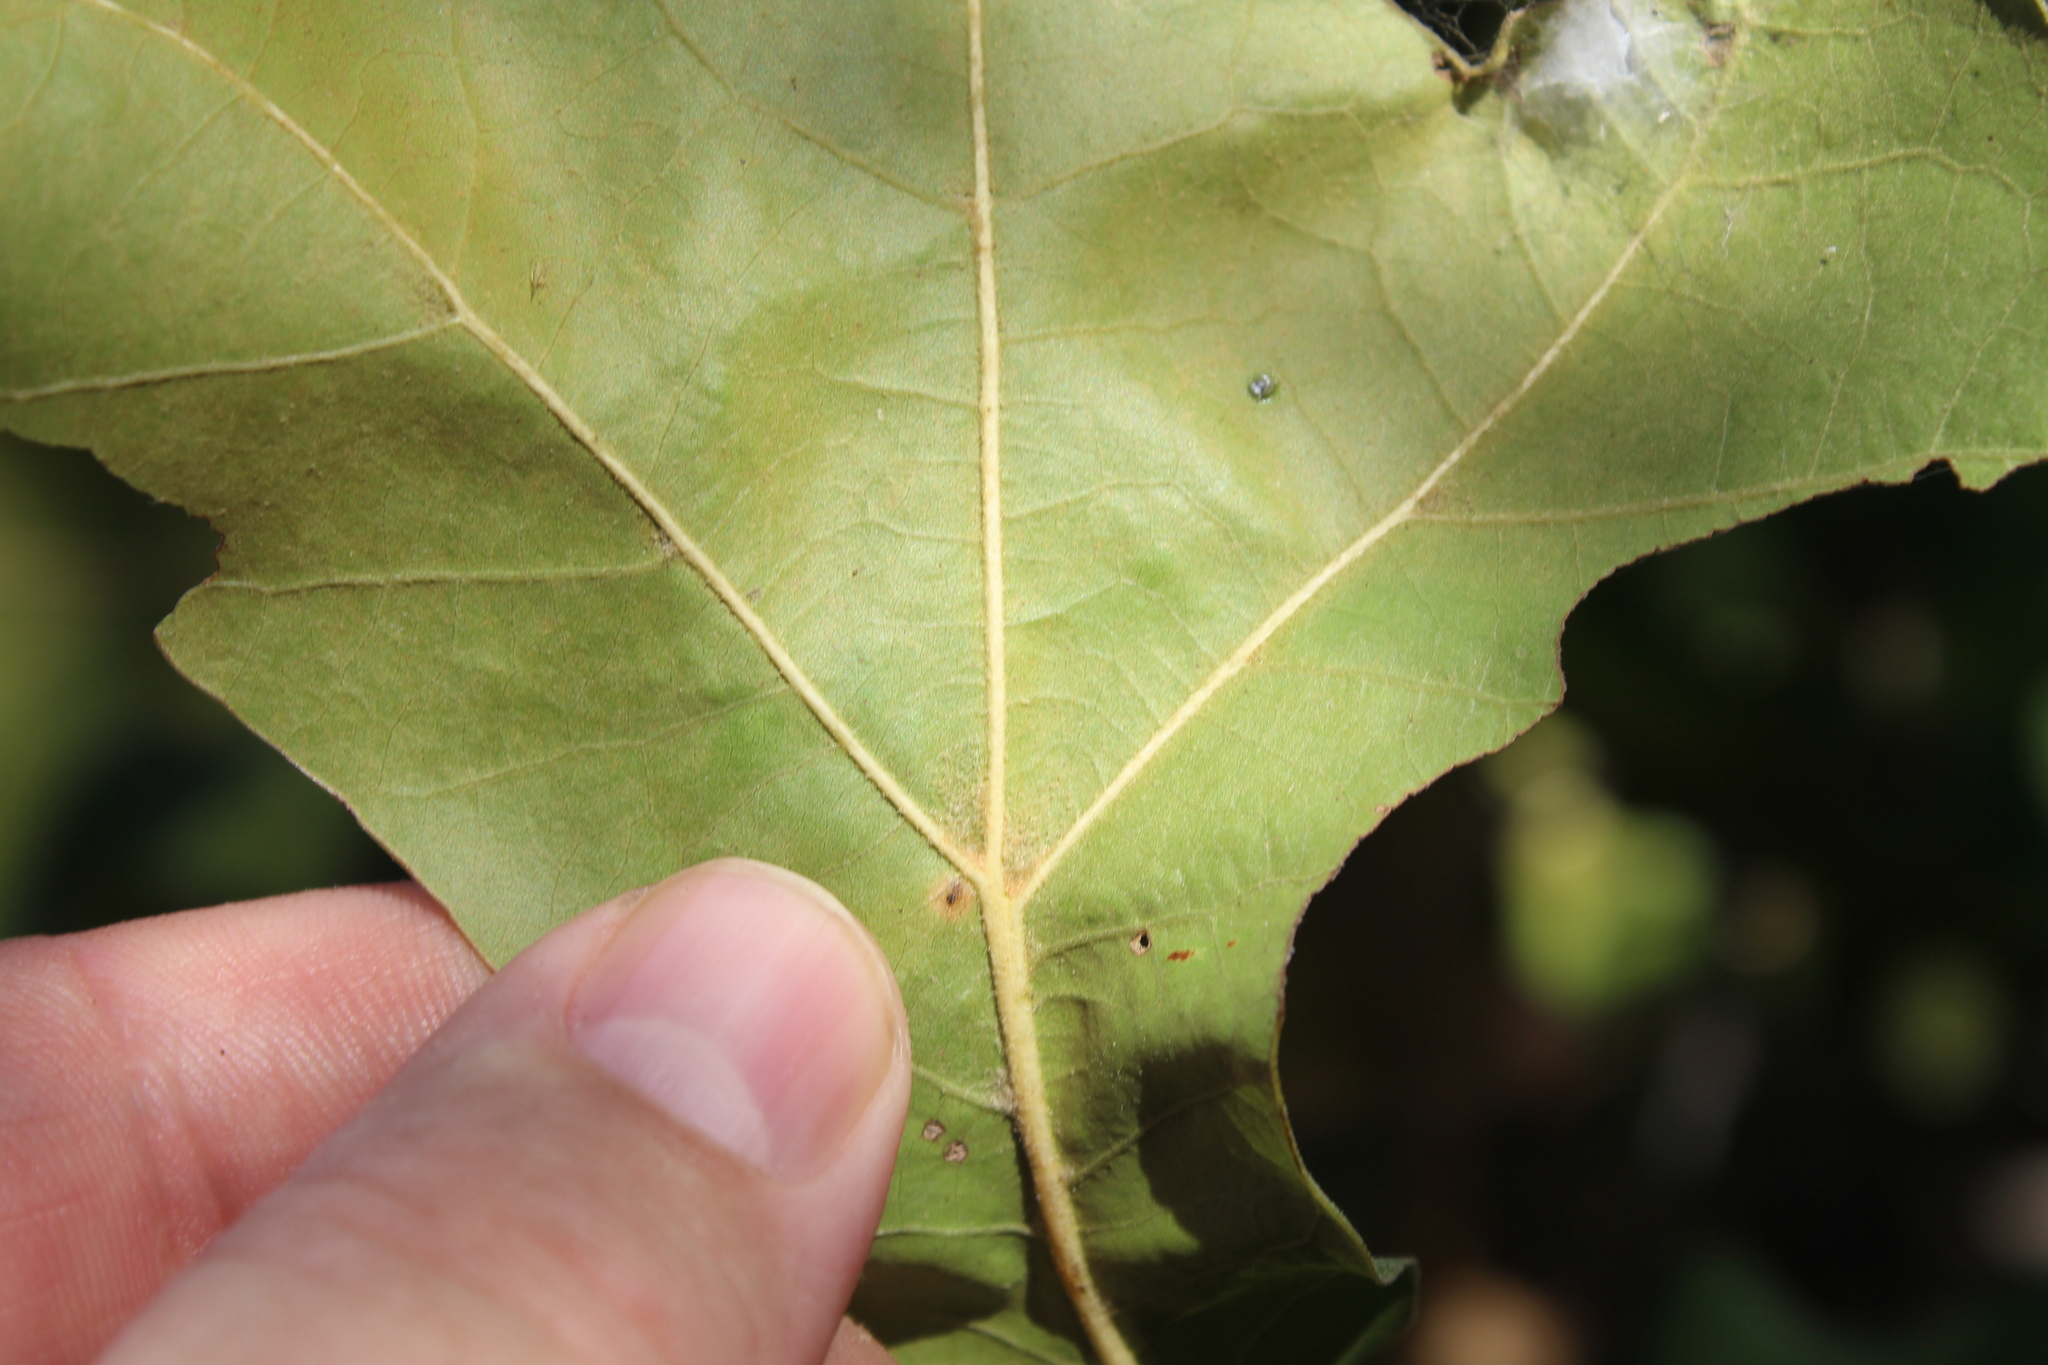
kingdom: Animalia
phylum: Arthropoda
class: Insecta
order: Diptera
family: Cecidomyiidae
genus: Polystepha
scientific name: Polystepha pilulae
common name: Oak leaf gall midge
